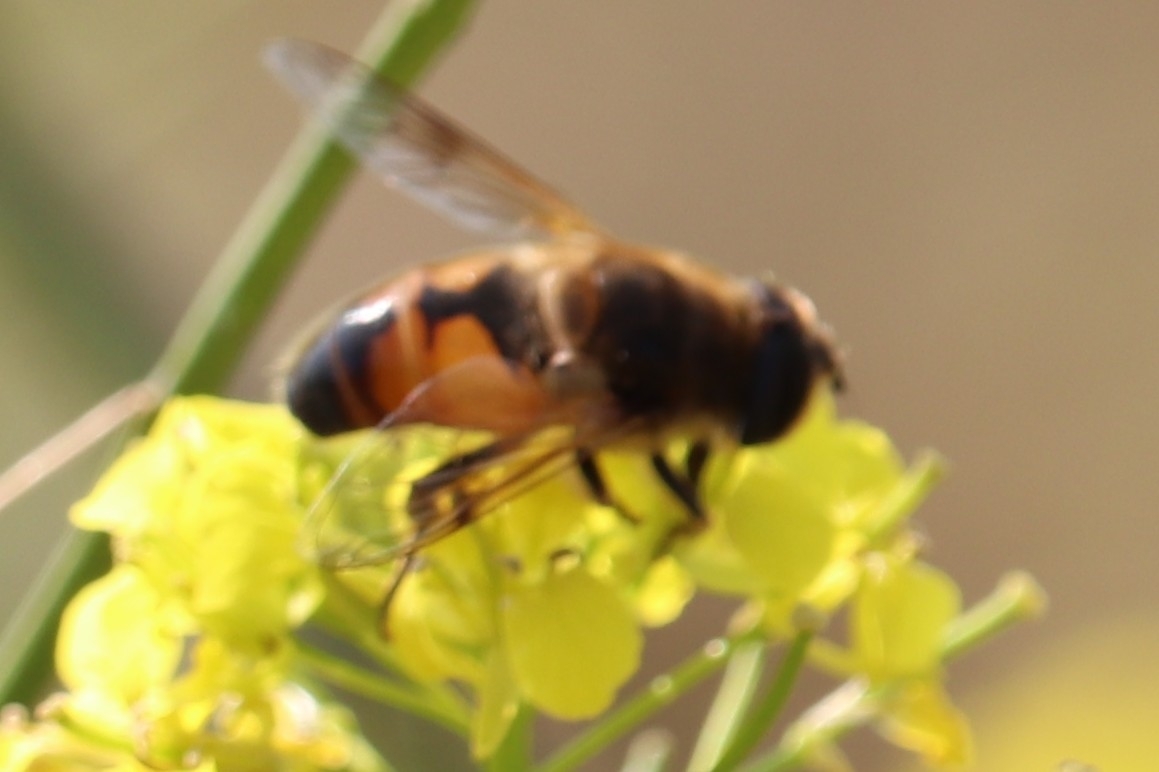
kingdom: Animalia
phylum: Arthropoda
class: Insecta
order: Diptera
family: Syrphidae
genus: Eristalis
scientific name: Eristalis tenax
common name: Drone fly
